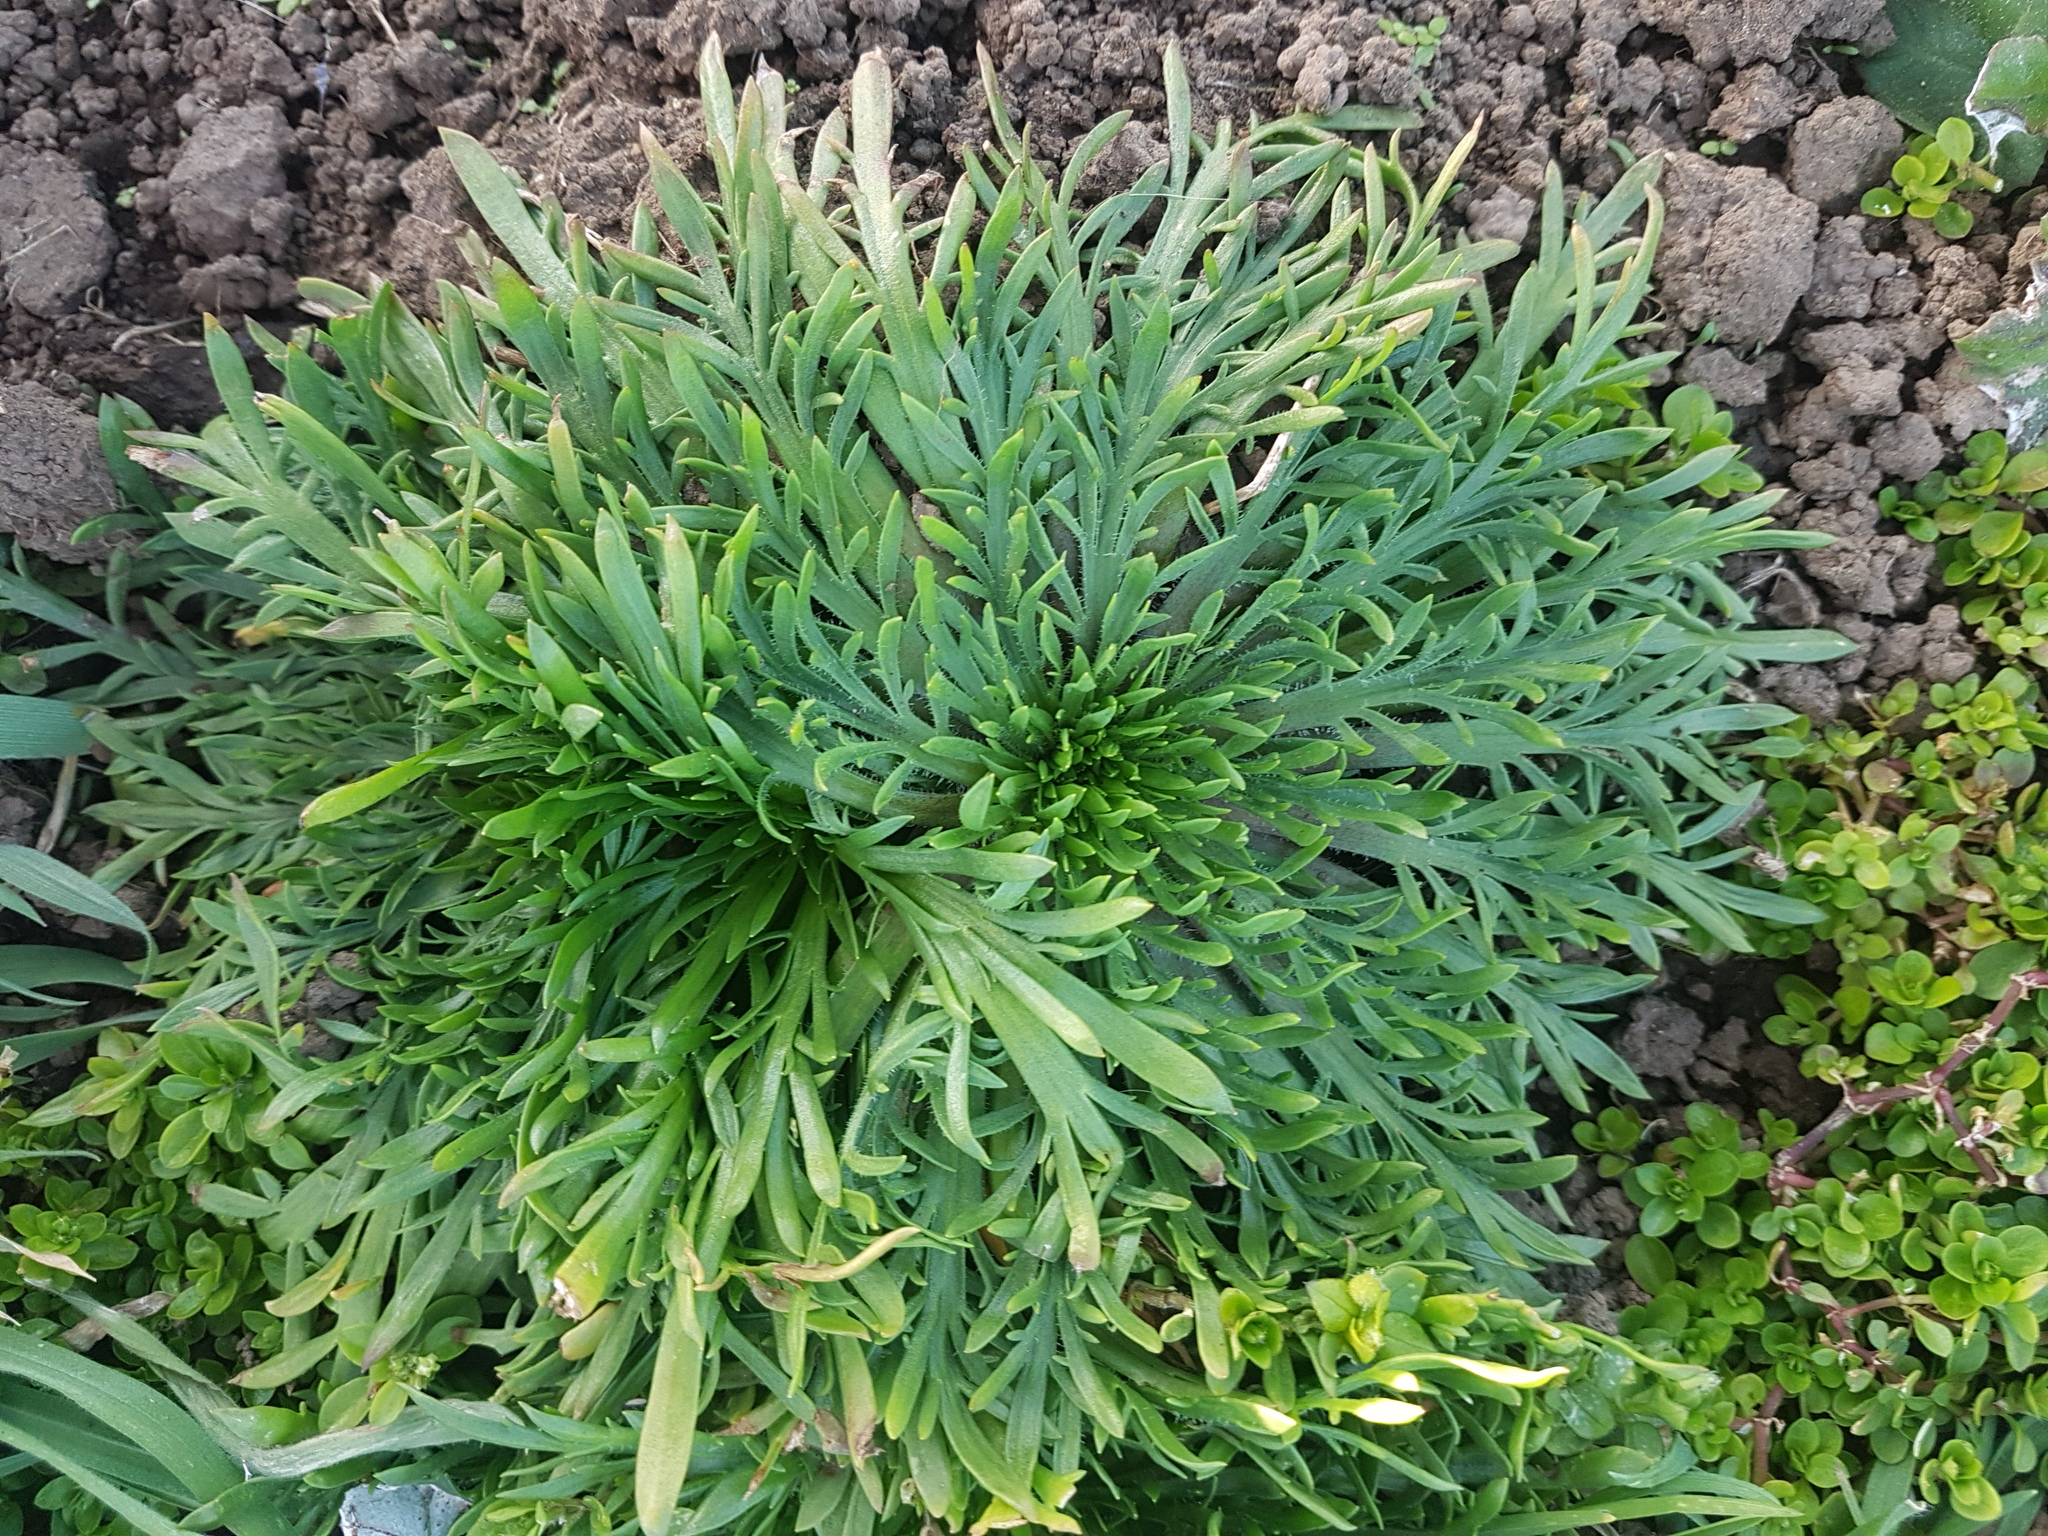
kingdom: Plantae
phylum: Tracheophyta
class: Magnoliopsida
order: Lamiales
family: Plantaginaceae
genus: Plantago
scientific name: Plantago coronopus
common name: Buck's-horn plantain
